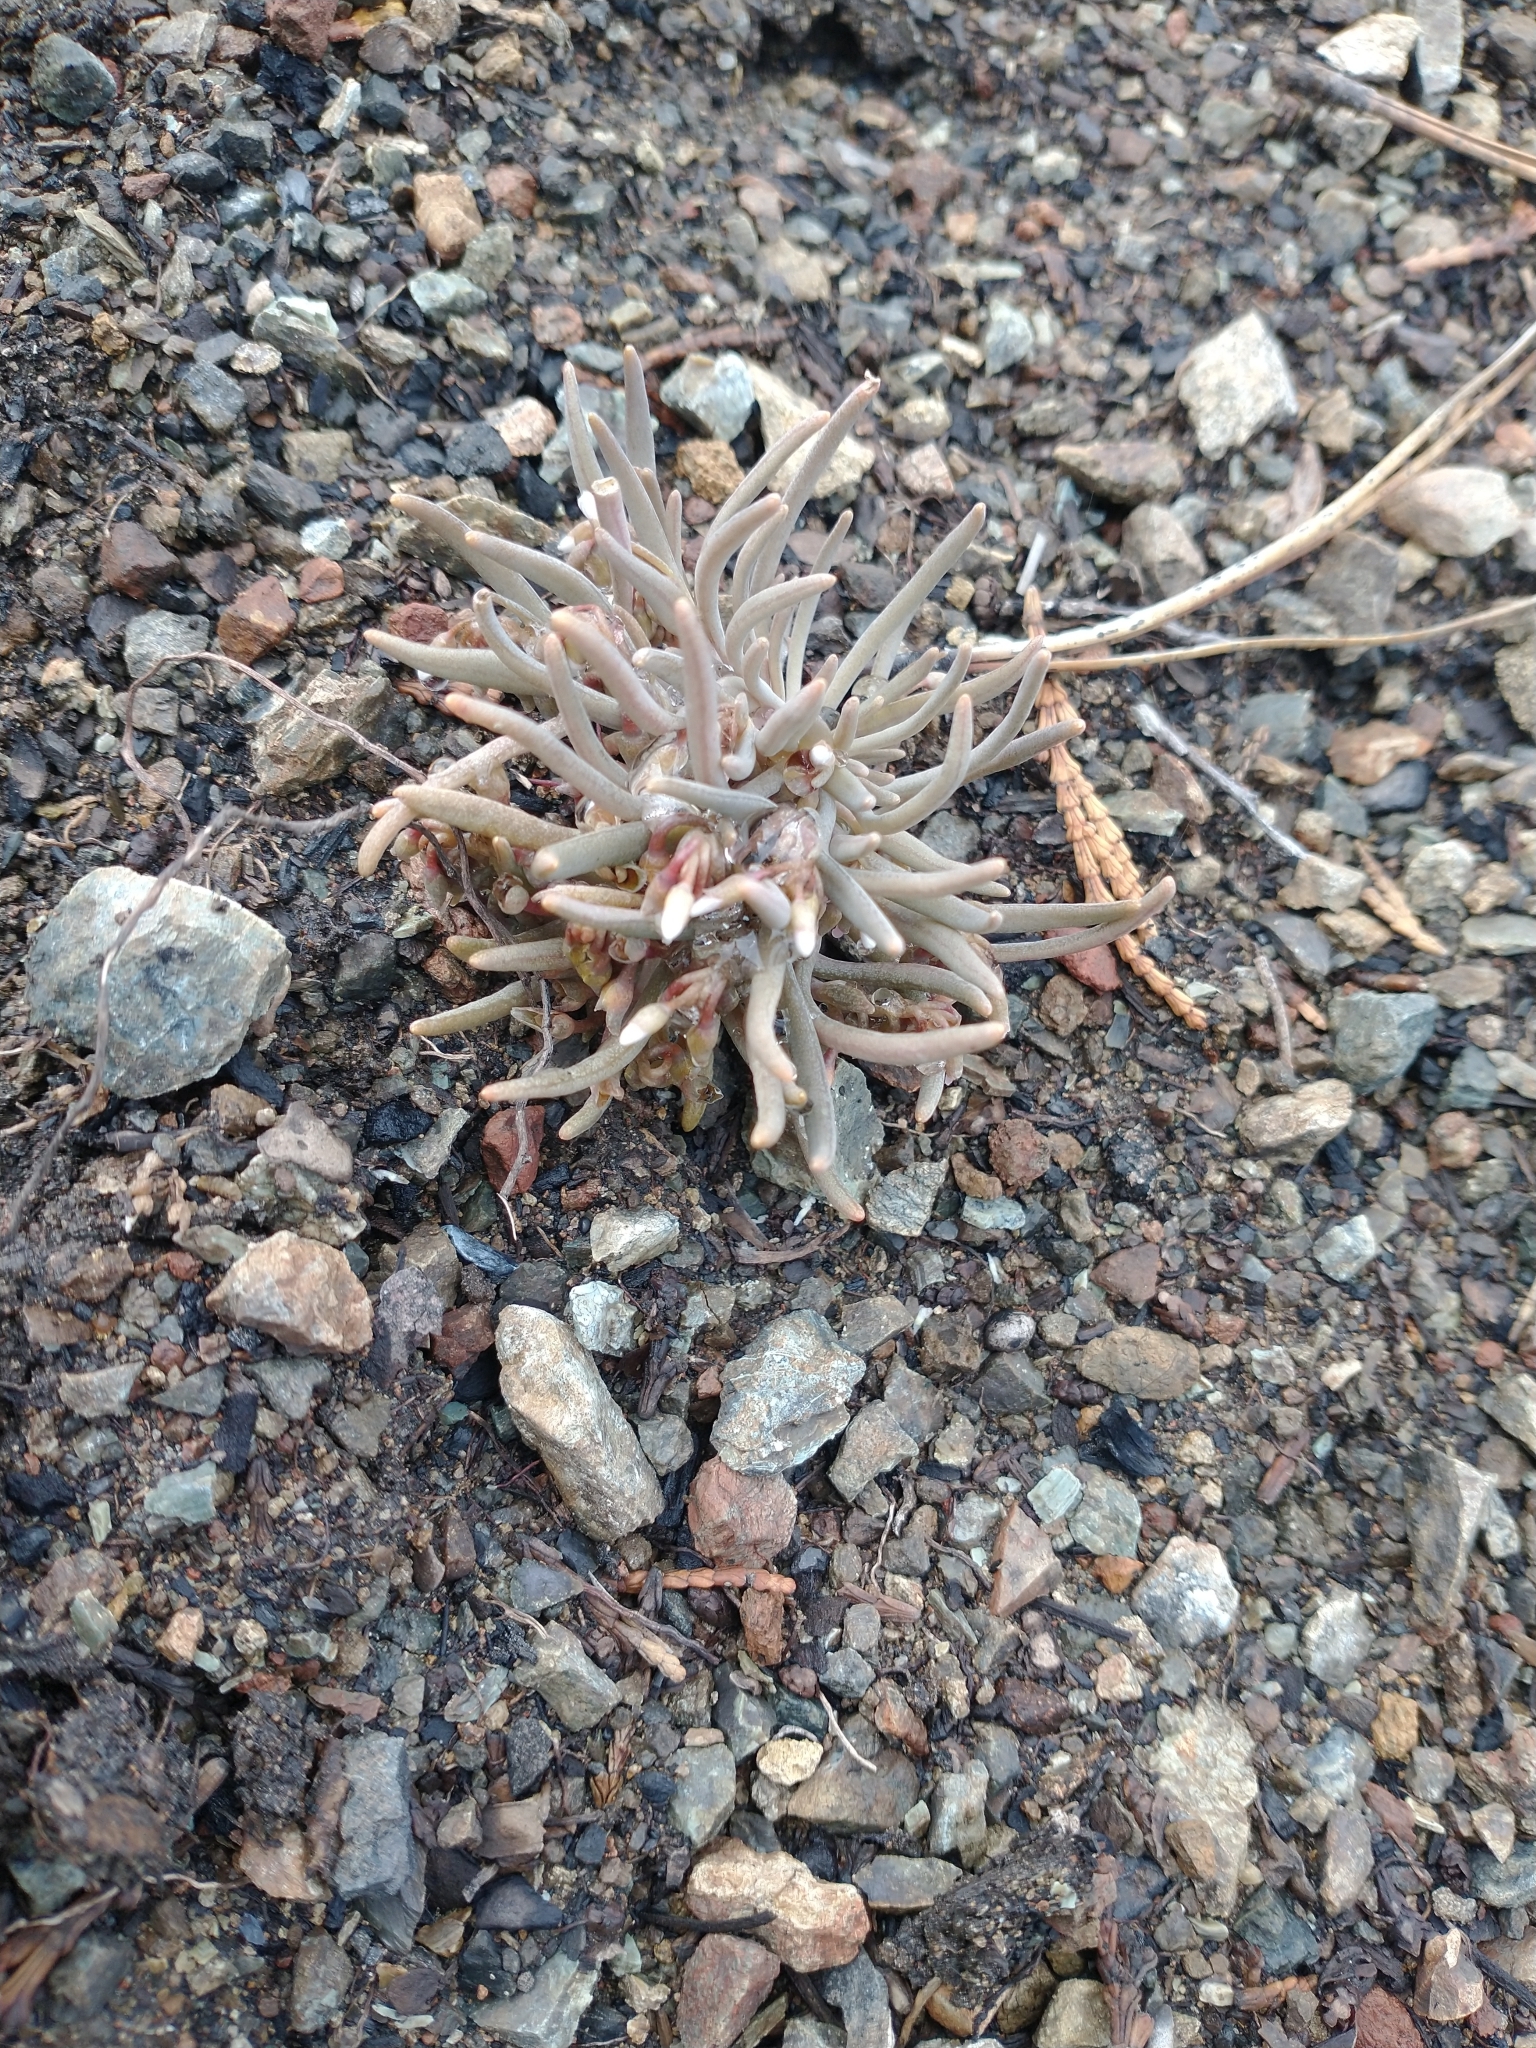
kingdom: Plantae
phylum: Tracheophyta
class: Magnoliopsida
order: Caryophyllales
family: Montiaceae
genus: Claytonia
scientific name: Claytonia exigua
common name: Pale spring beauty
